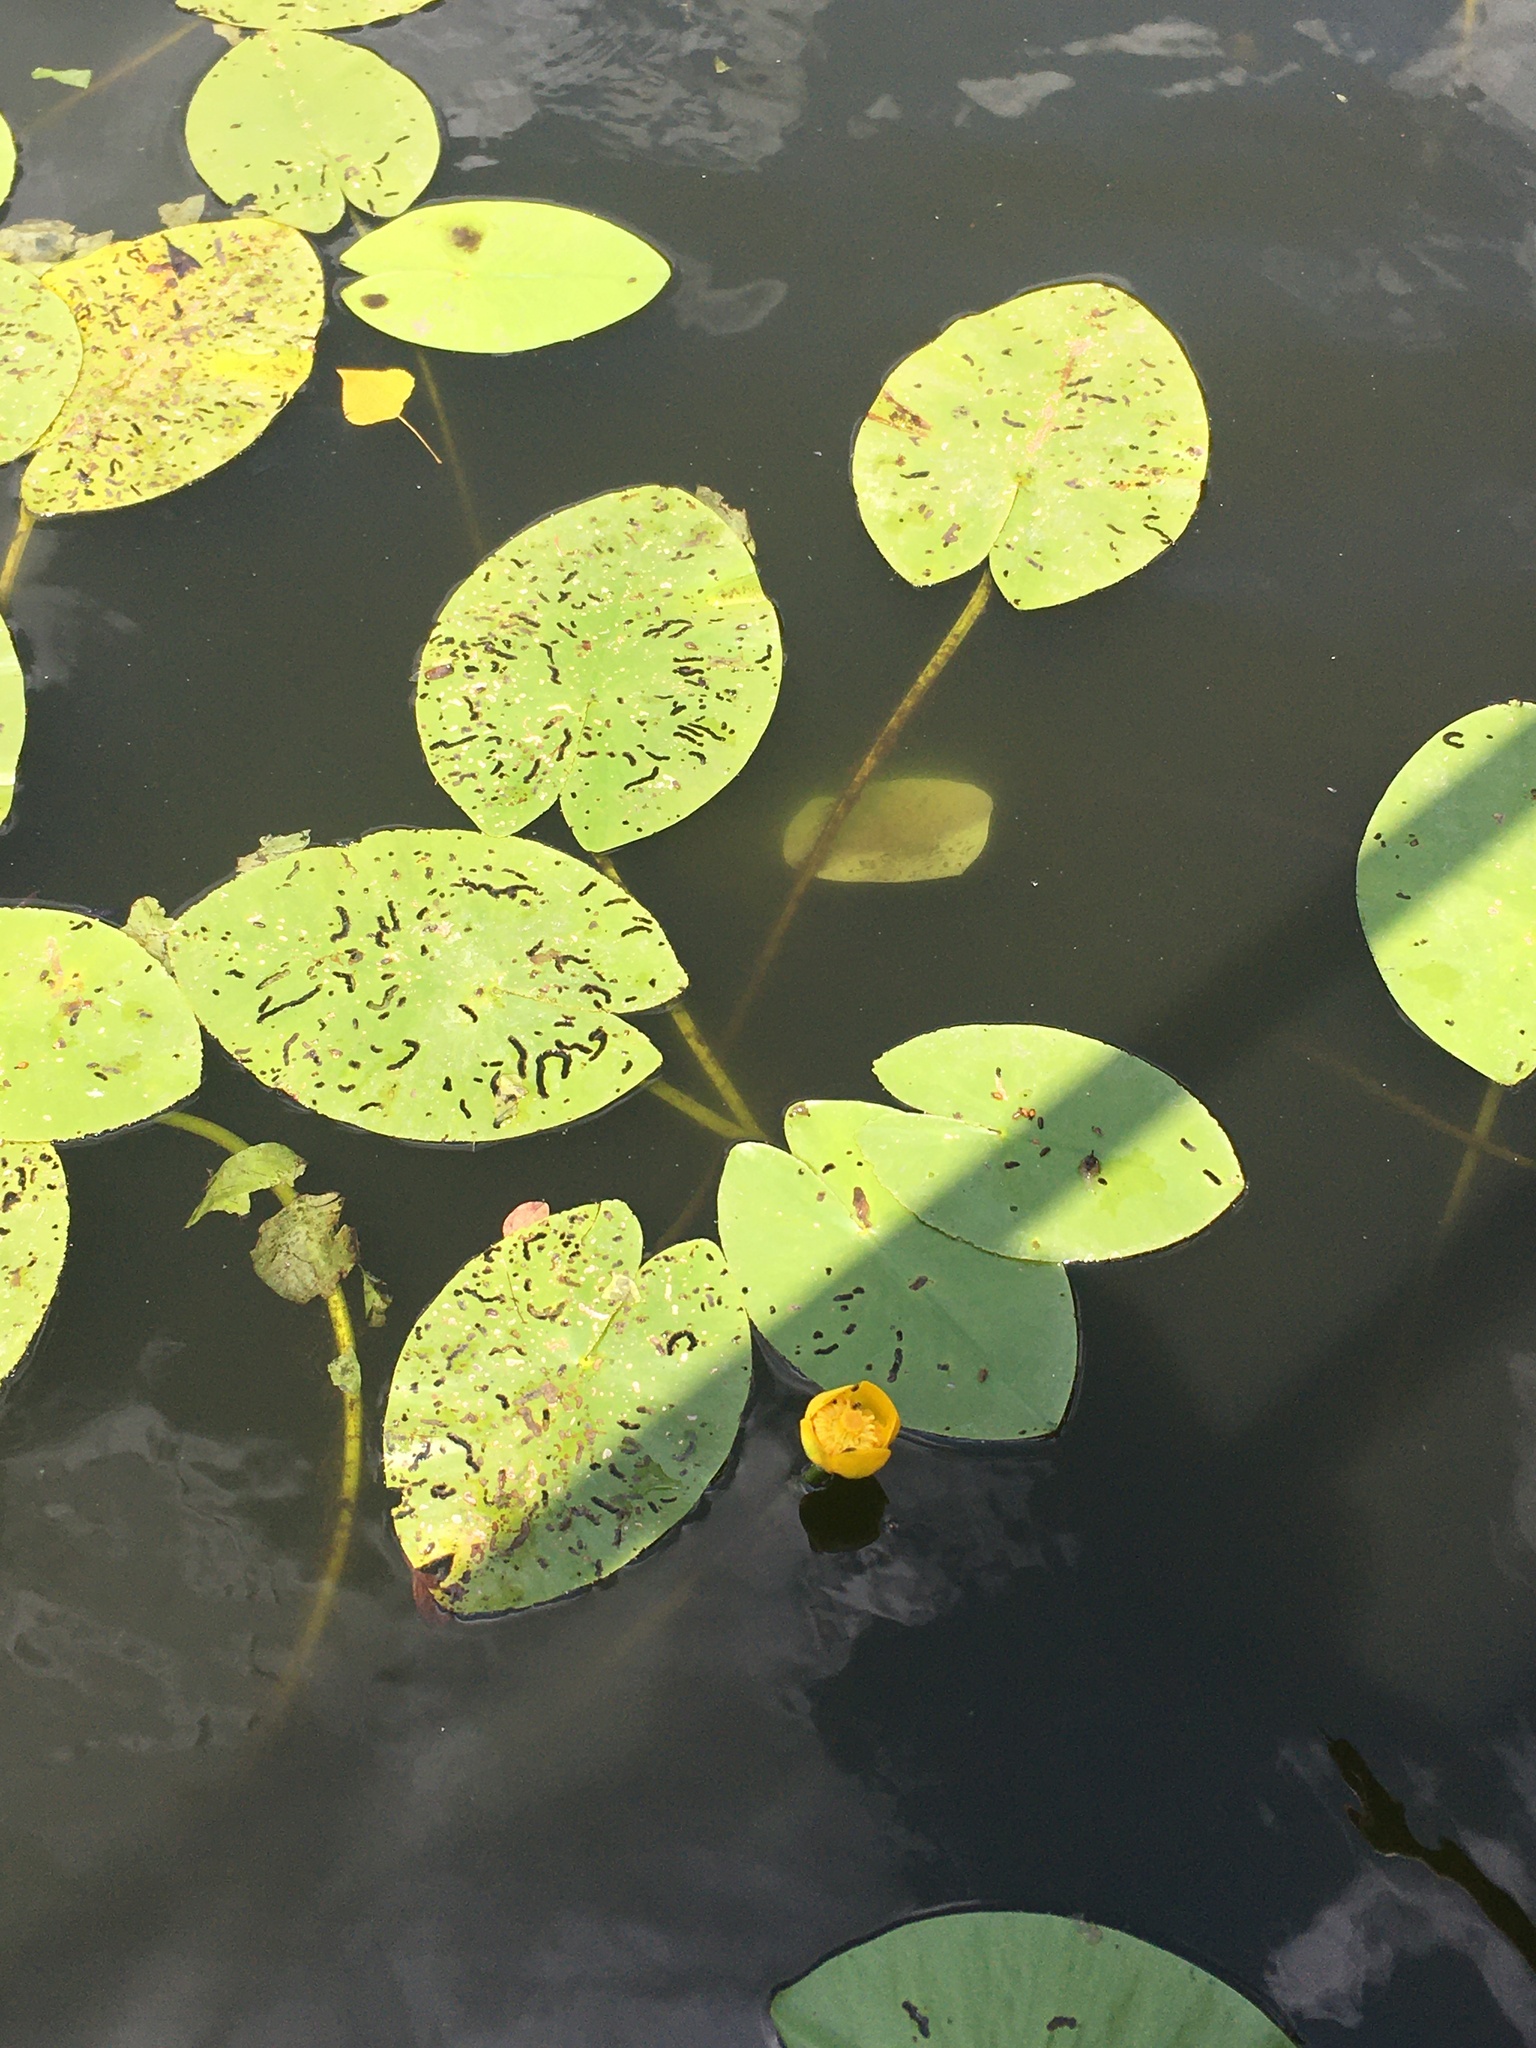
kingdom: Plantae
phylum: Tracheophyta
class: Magnoliopsida
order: Nymphaeales
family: Nymphaeaceae
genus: Nuphar
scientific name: Nuphar lutea
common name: Yellow water-lily
